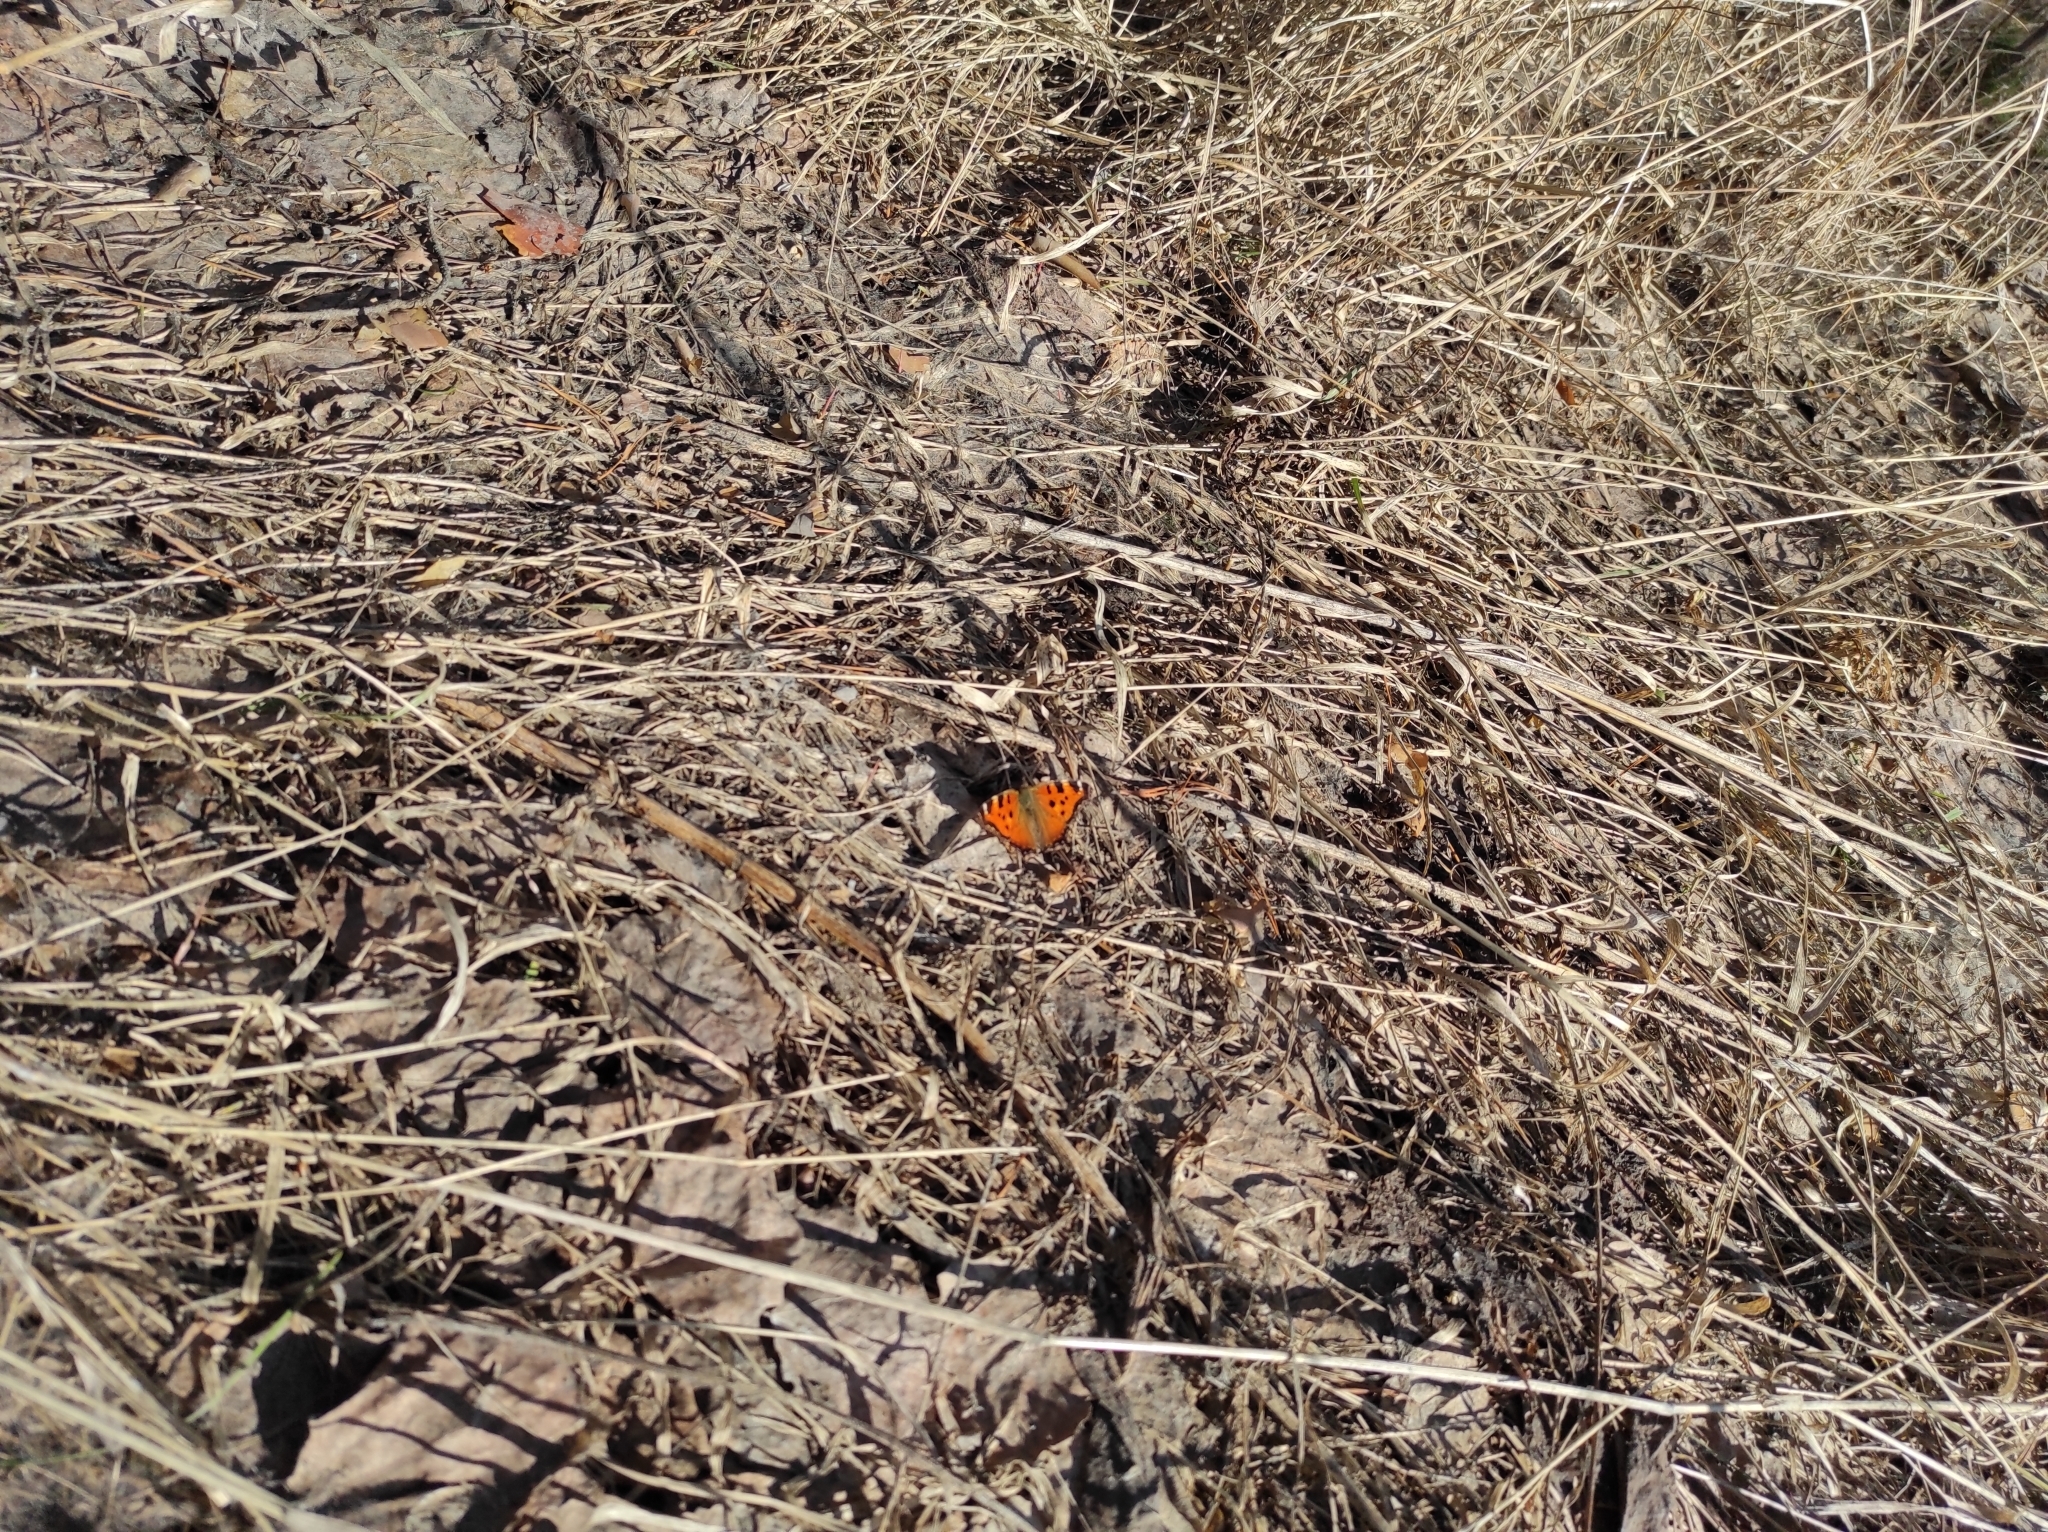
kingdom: Animalia
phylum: Arthropoda
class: Insecta
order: Lepidoptera
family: Nymphalidae
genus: Nymphalis
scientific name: Nymphalis xanthomelas
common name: Scarce tortoiseshell
